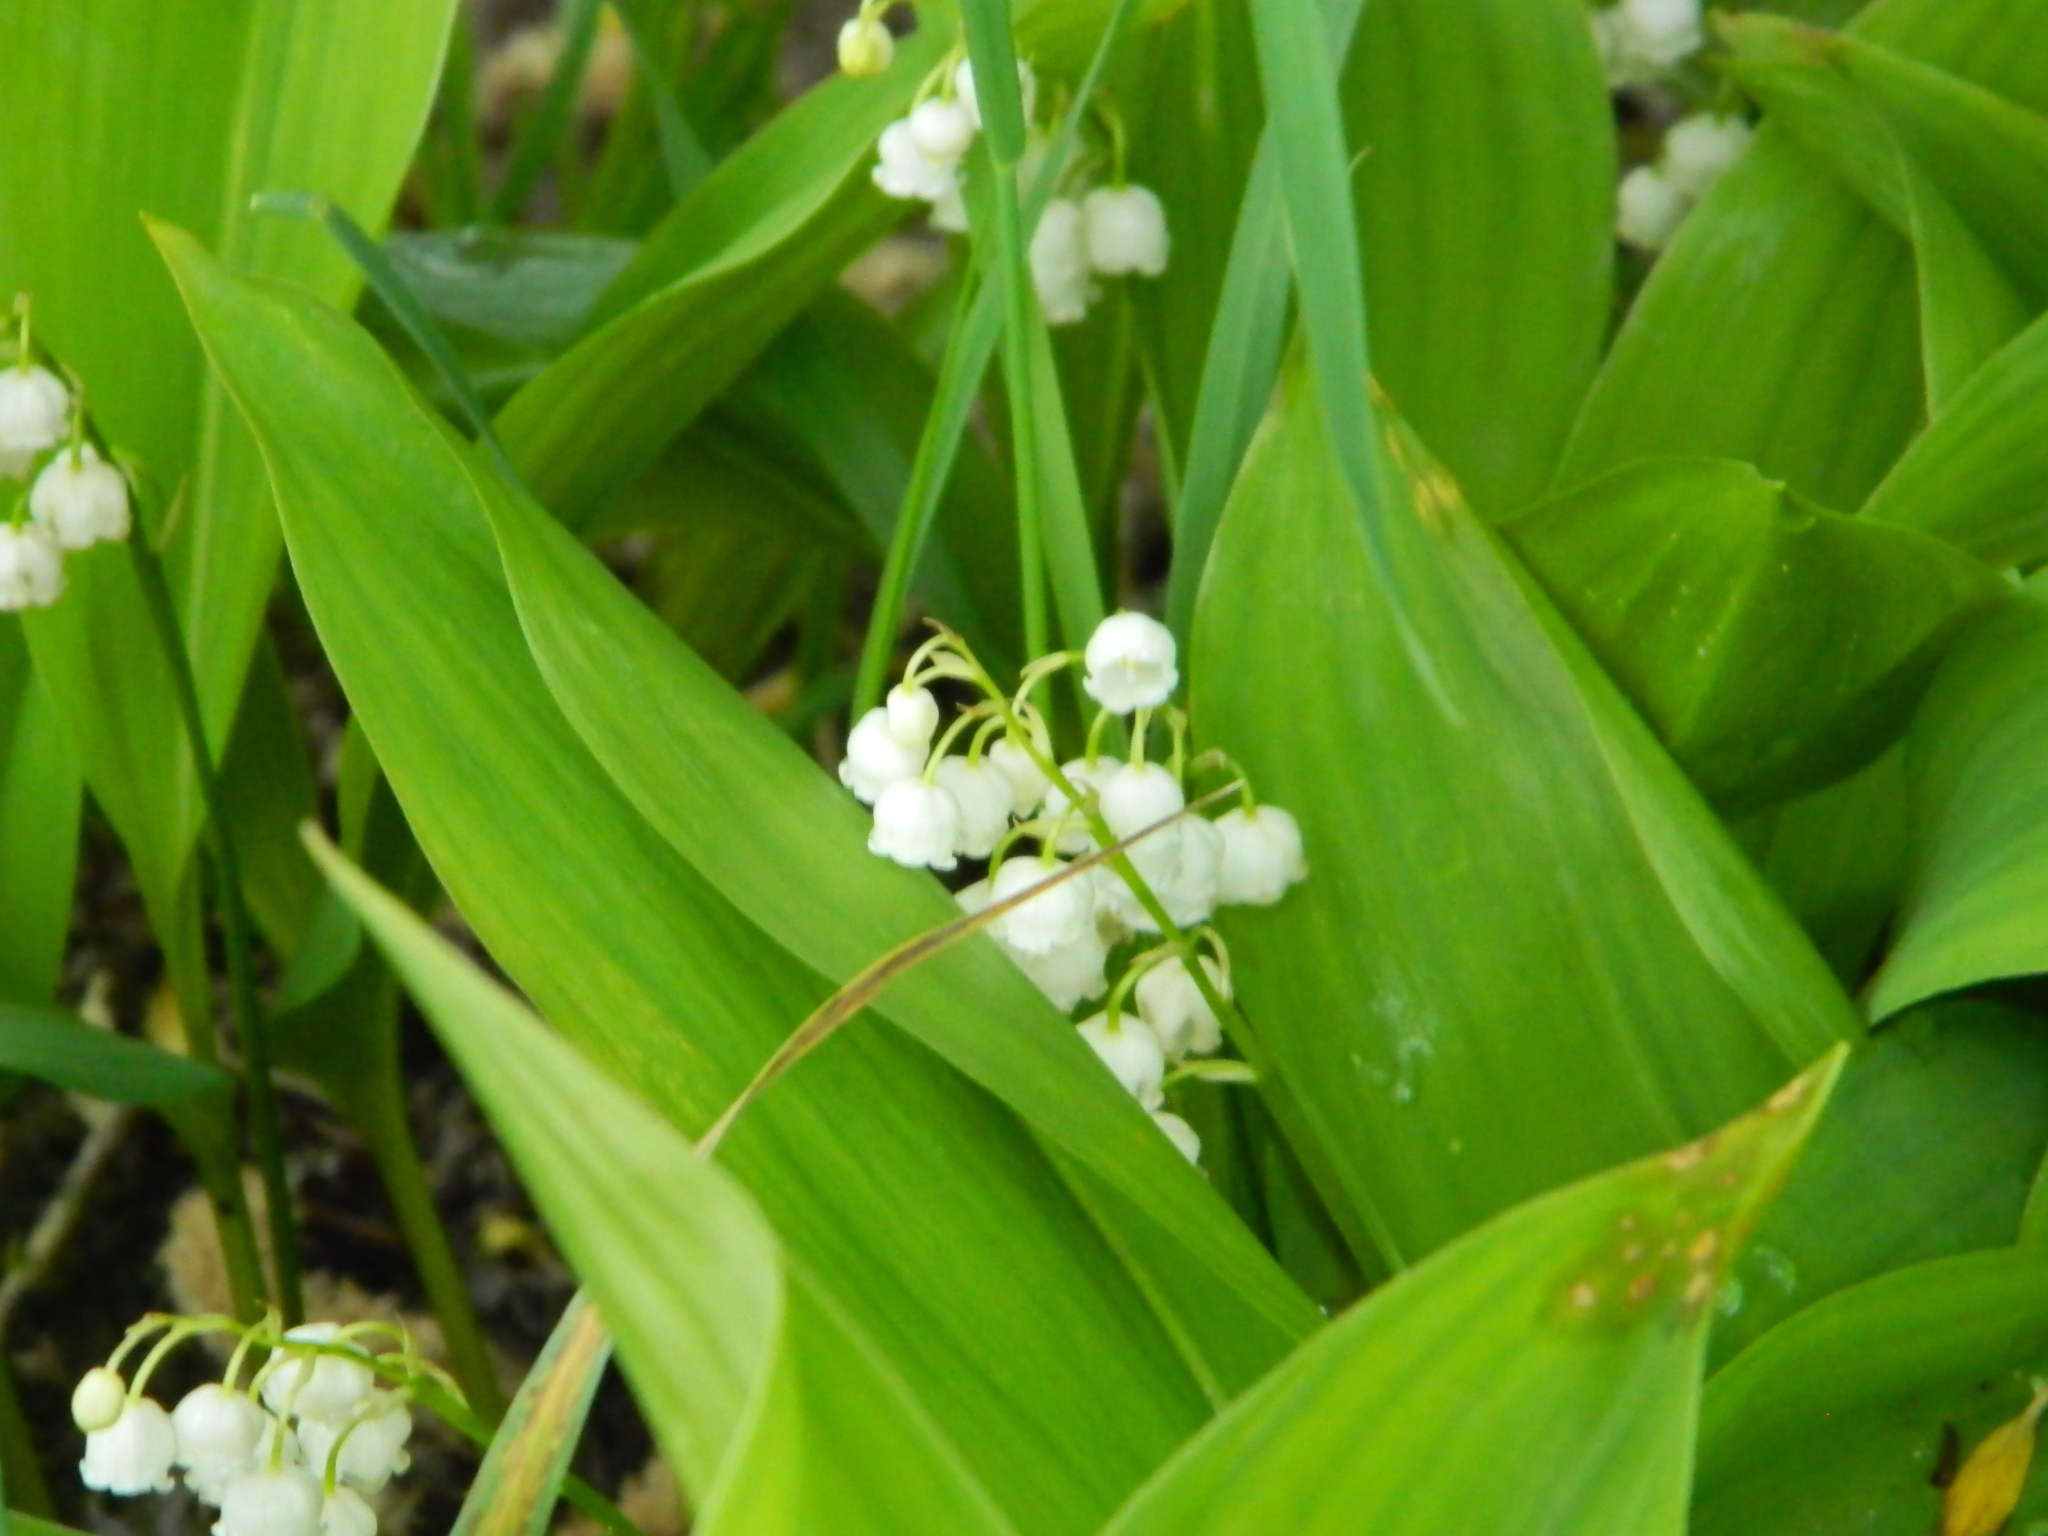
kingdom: Plantae
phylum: Tracheophyta
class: Liliopsida
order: Asparagales
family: Asparagaceae
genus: Convallaria
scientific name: Convallaria majalis
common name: Lily-of-the-valley
